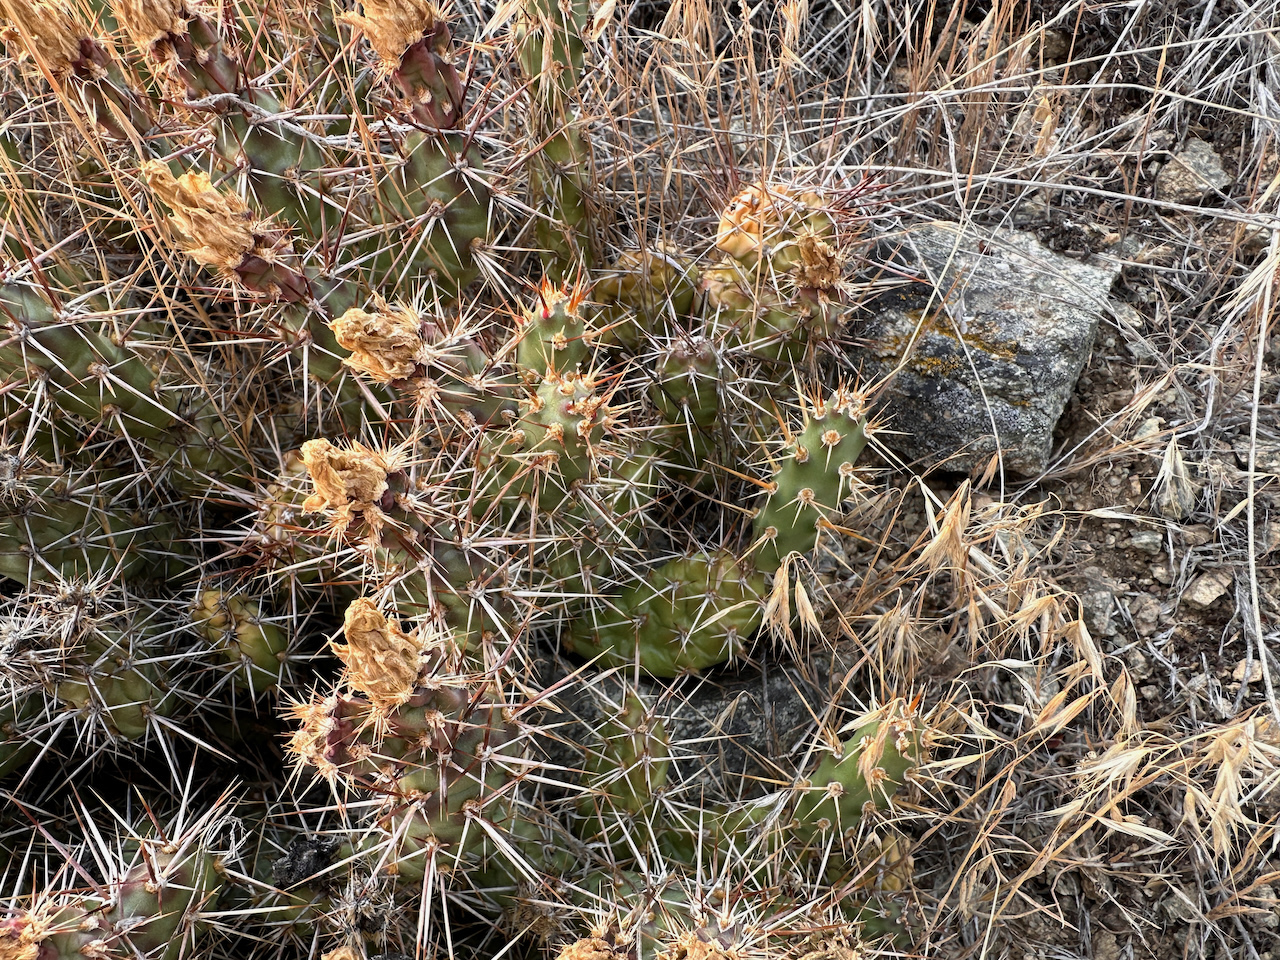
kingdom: Plantae
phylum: Tracheophyta
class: Magnoliopsida
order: Caryophyllales
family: Cactaceae
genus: Opuntia
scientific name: Opuntia fragilis
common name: Brittle cactus
